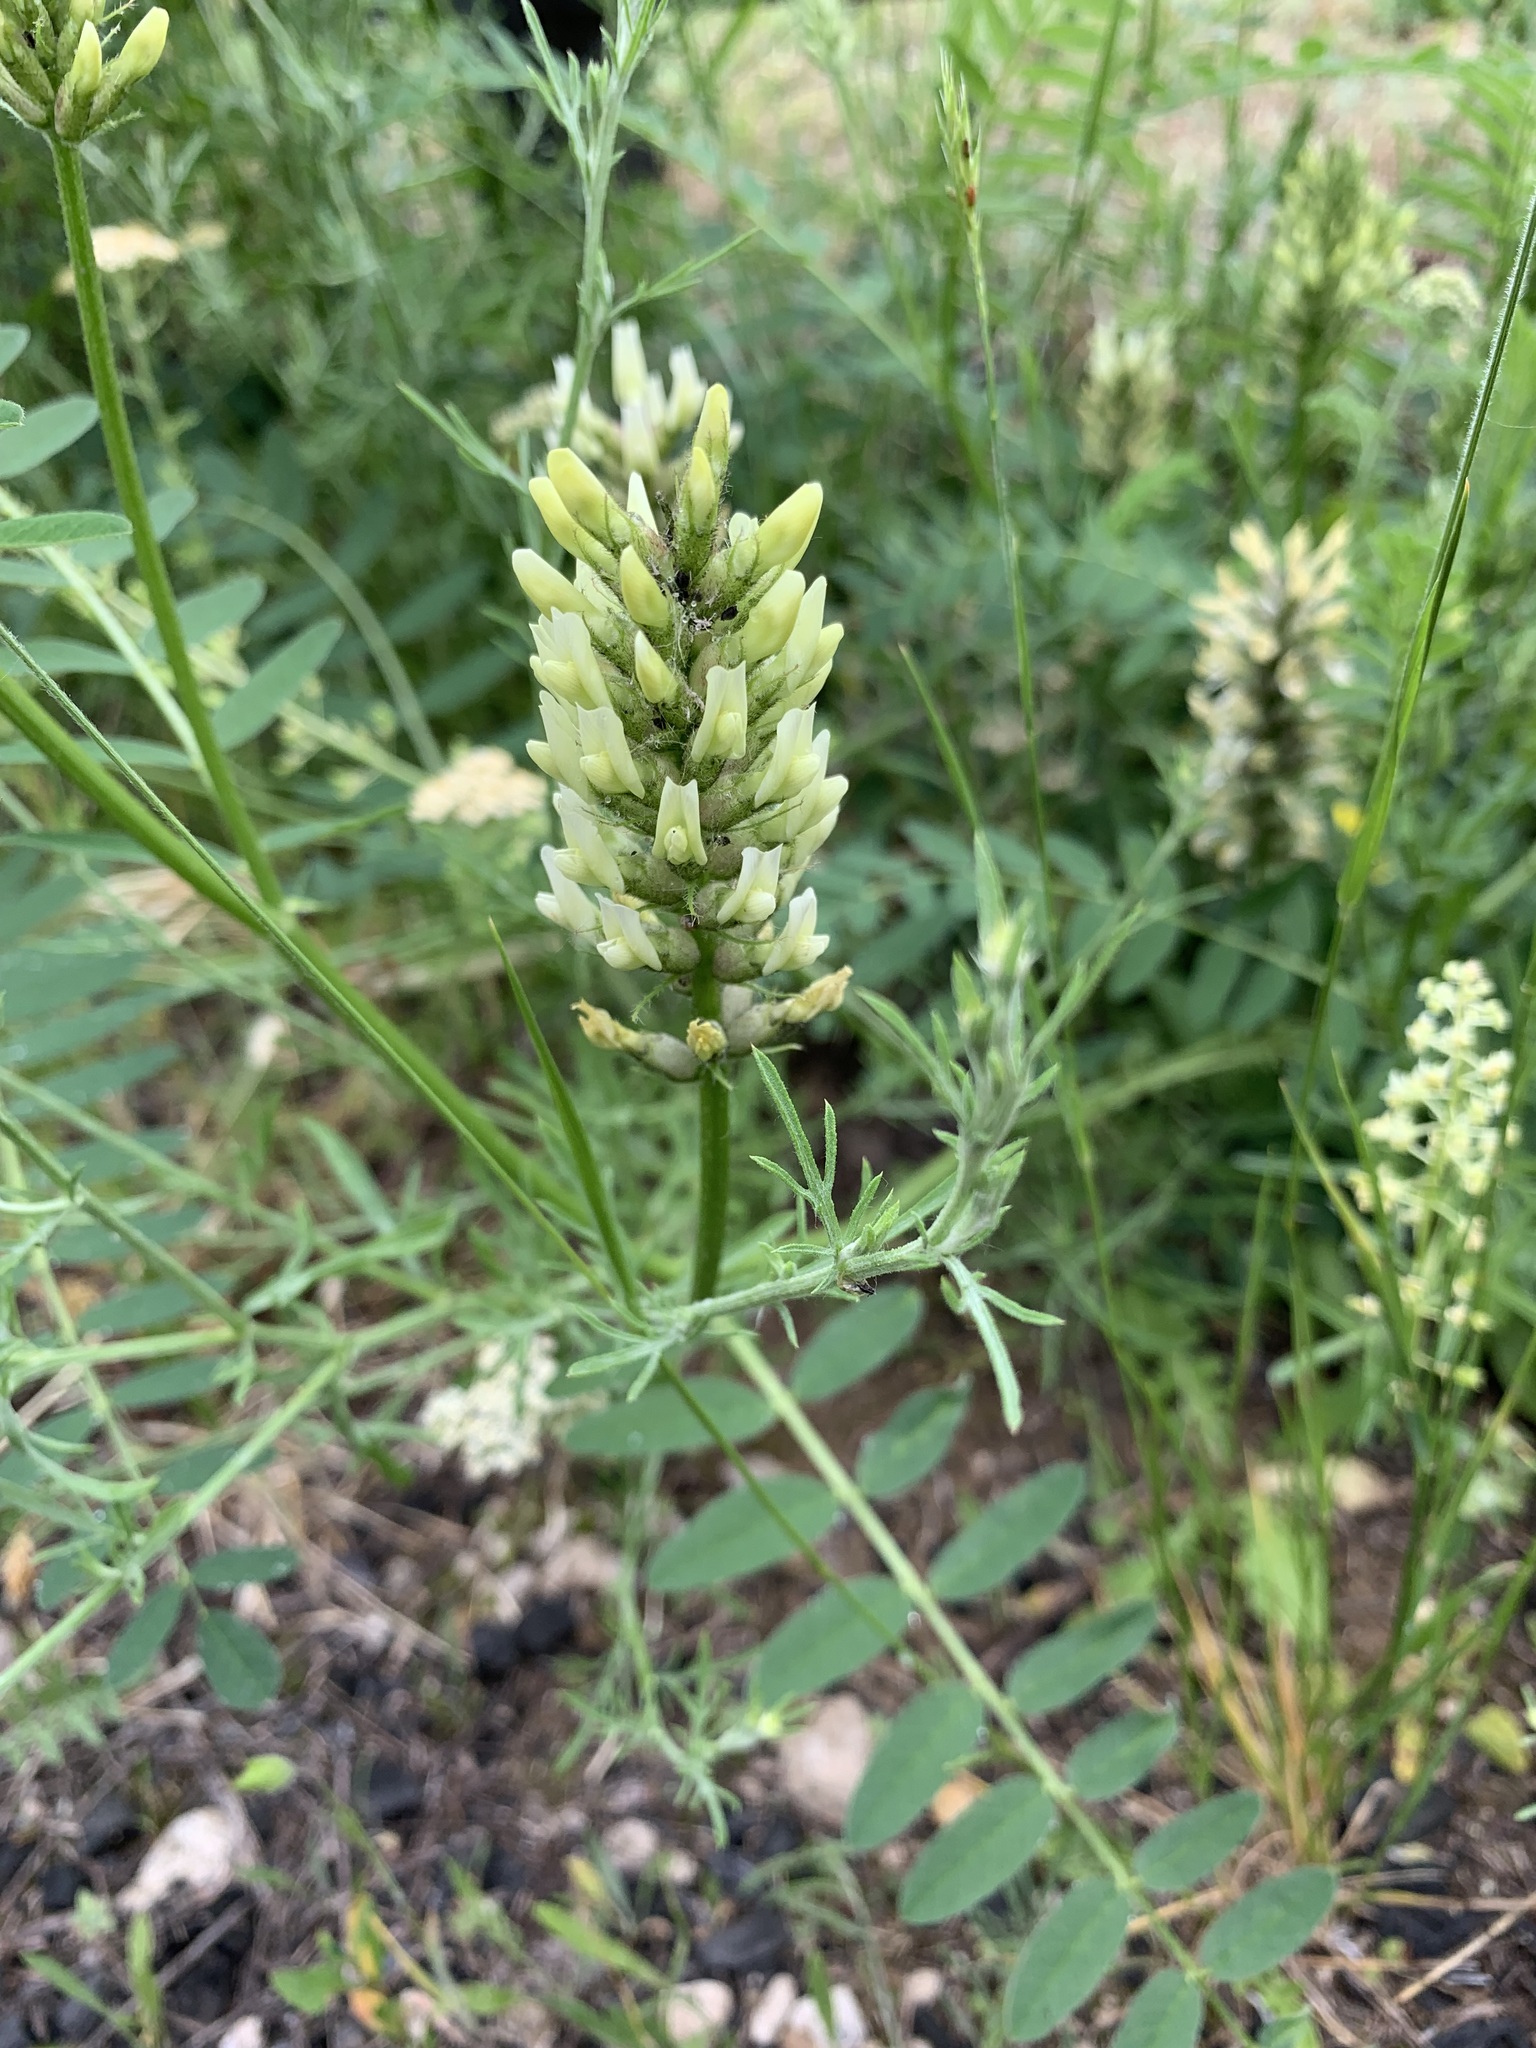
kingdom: Plantae
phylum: Tracheophyta
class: Magnoliopsida
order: Fabales
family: Fabaceae
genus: Astragalus
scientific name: Astragalus cicer
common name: Chick-pea milk-vetch
